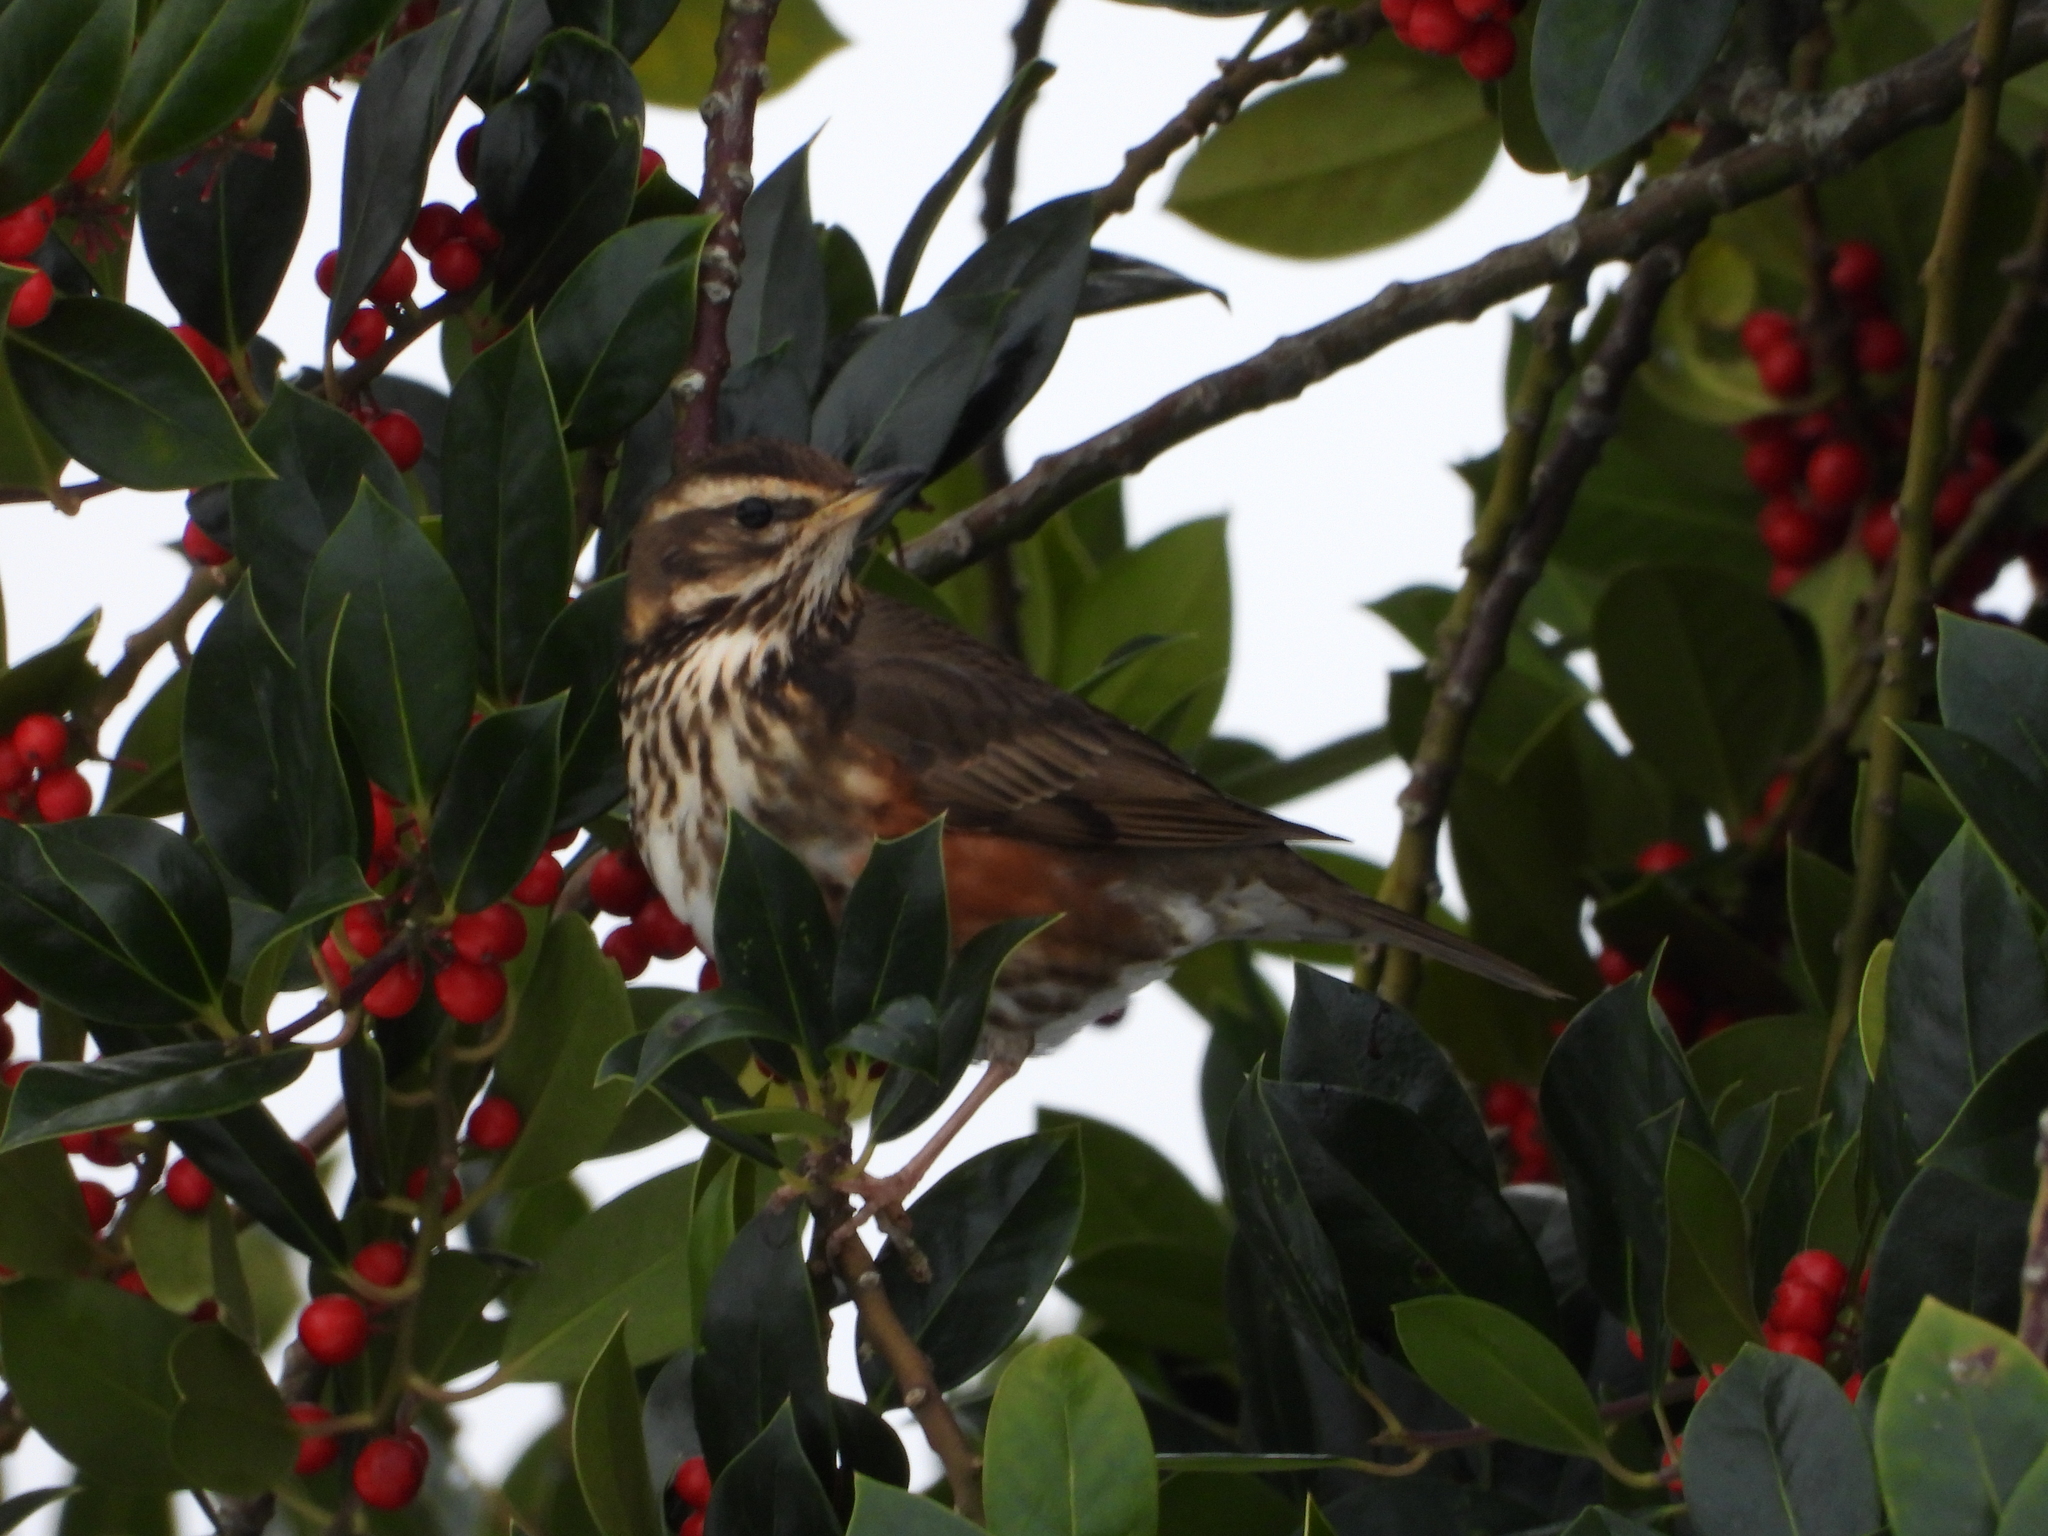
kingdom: Animalia
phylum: Chordata
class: Aves
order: Passeriformes
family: Turdidae
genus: Turdus
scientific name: Turdus iliacus
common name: Redwing
